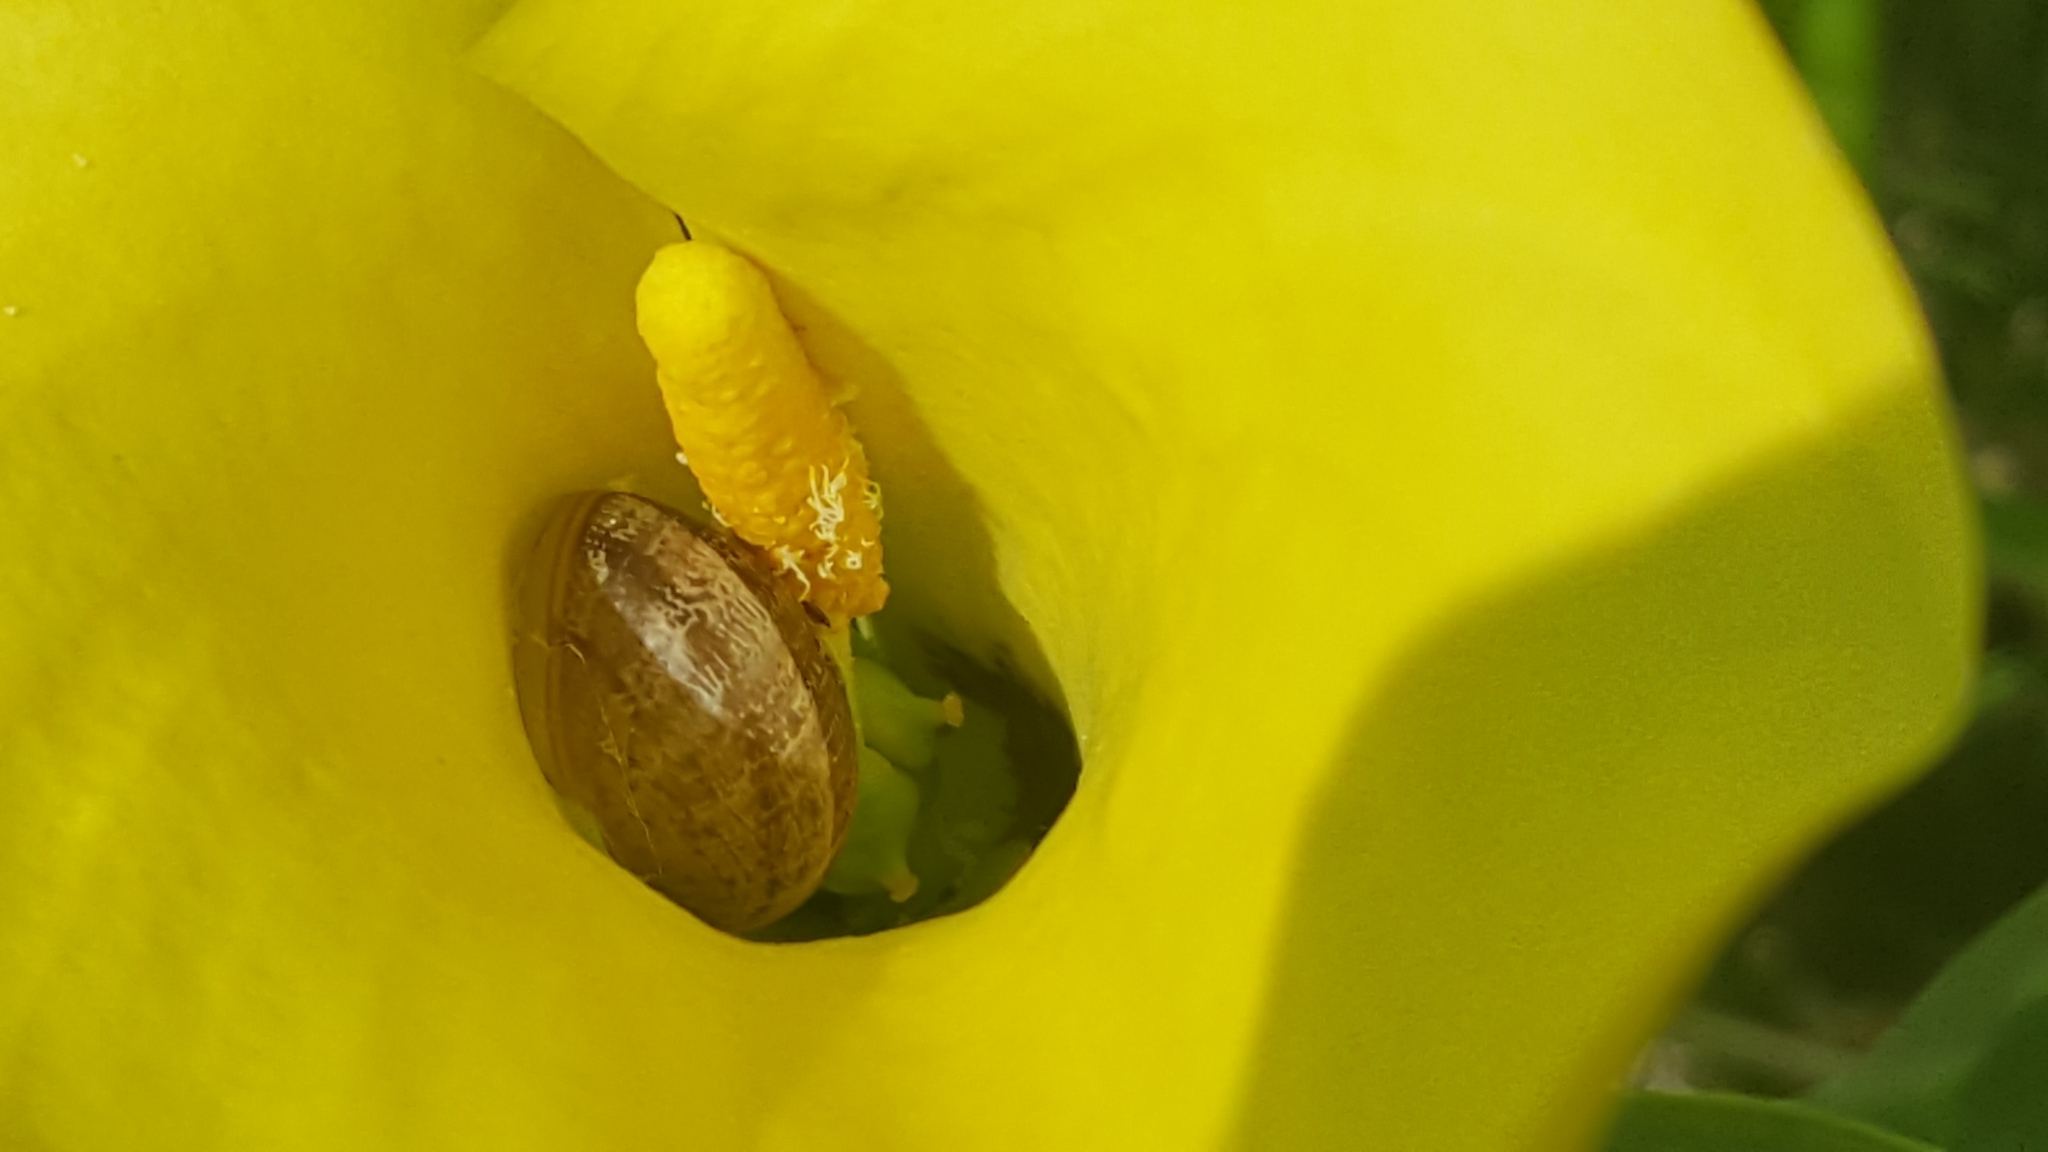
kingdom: Animalia
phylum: Mollusca
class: Gastropoda
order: Stylommatophora
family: Helicidae
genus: Cornu
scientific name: Cornu aspersum
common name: Brown garden snail
